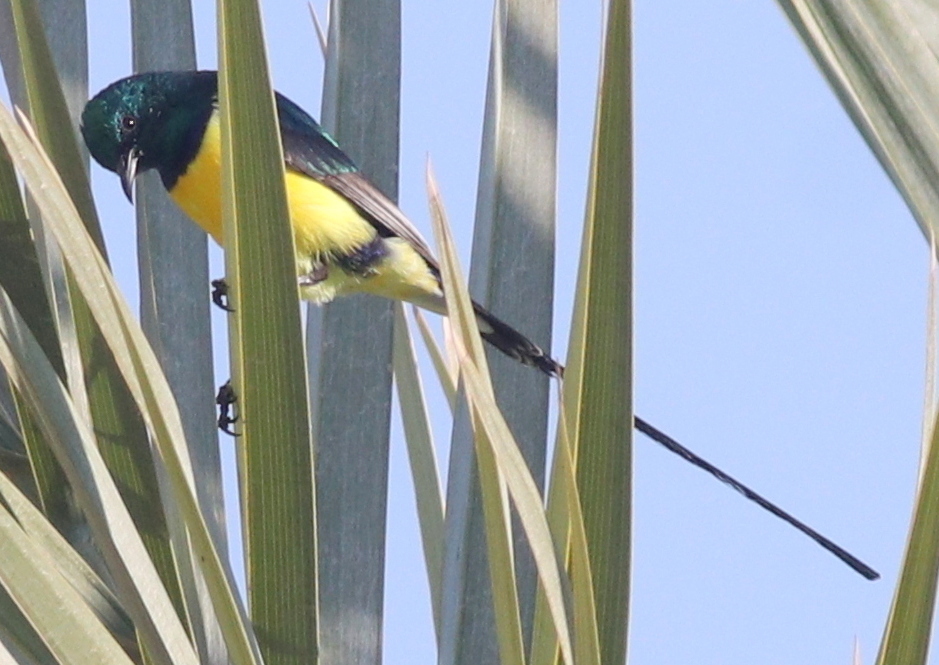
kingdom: Animalia
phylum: Chordata
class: Aves
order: Passeriformes
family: Nectariniidae
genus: Hedydipna
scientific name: Hedydipna metallica
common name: Nile valley sunbird
